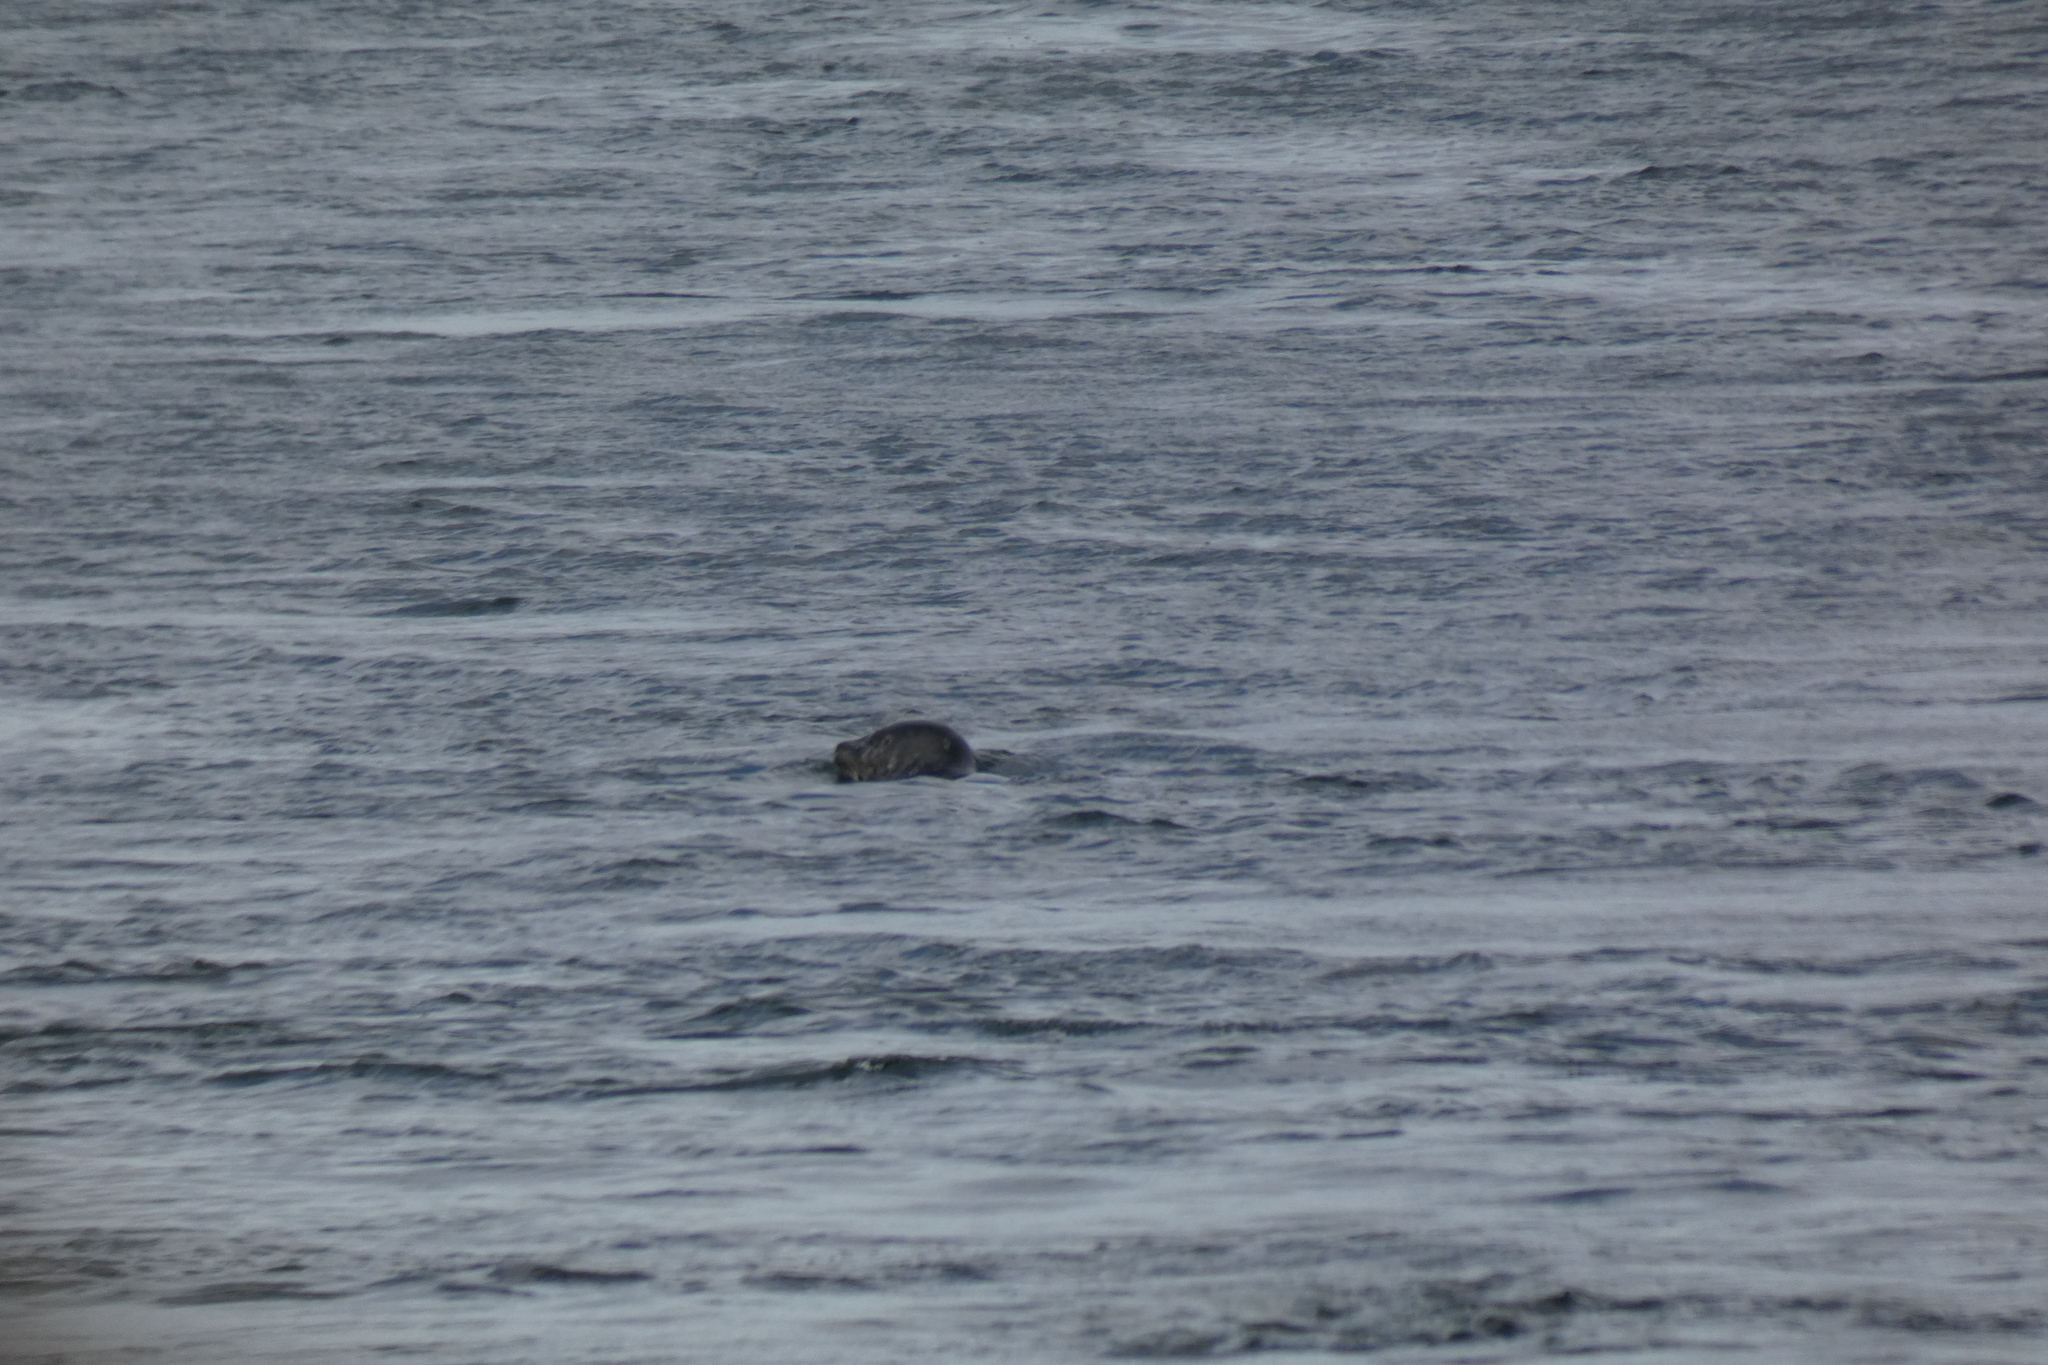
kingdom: Animalia
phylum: Chordata
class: Mammalia
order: Carnivora
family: Phocidae
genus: Phoca
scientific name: Phoca vitulina
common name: Harbor seal
